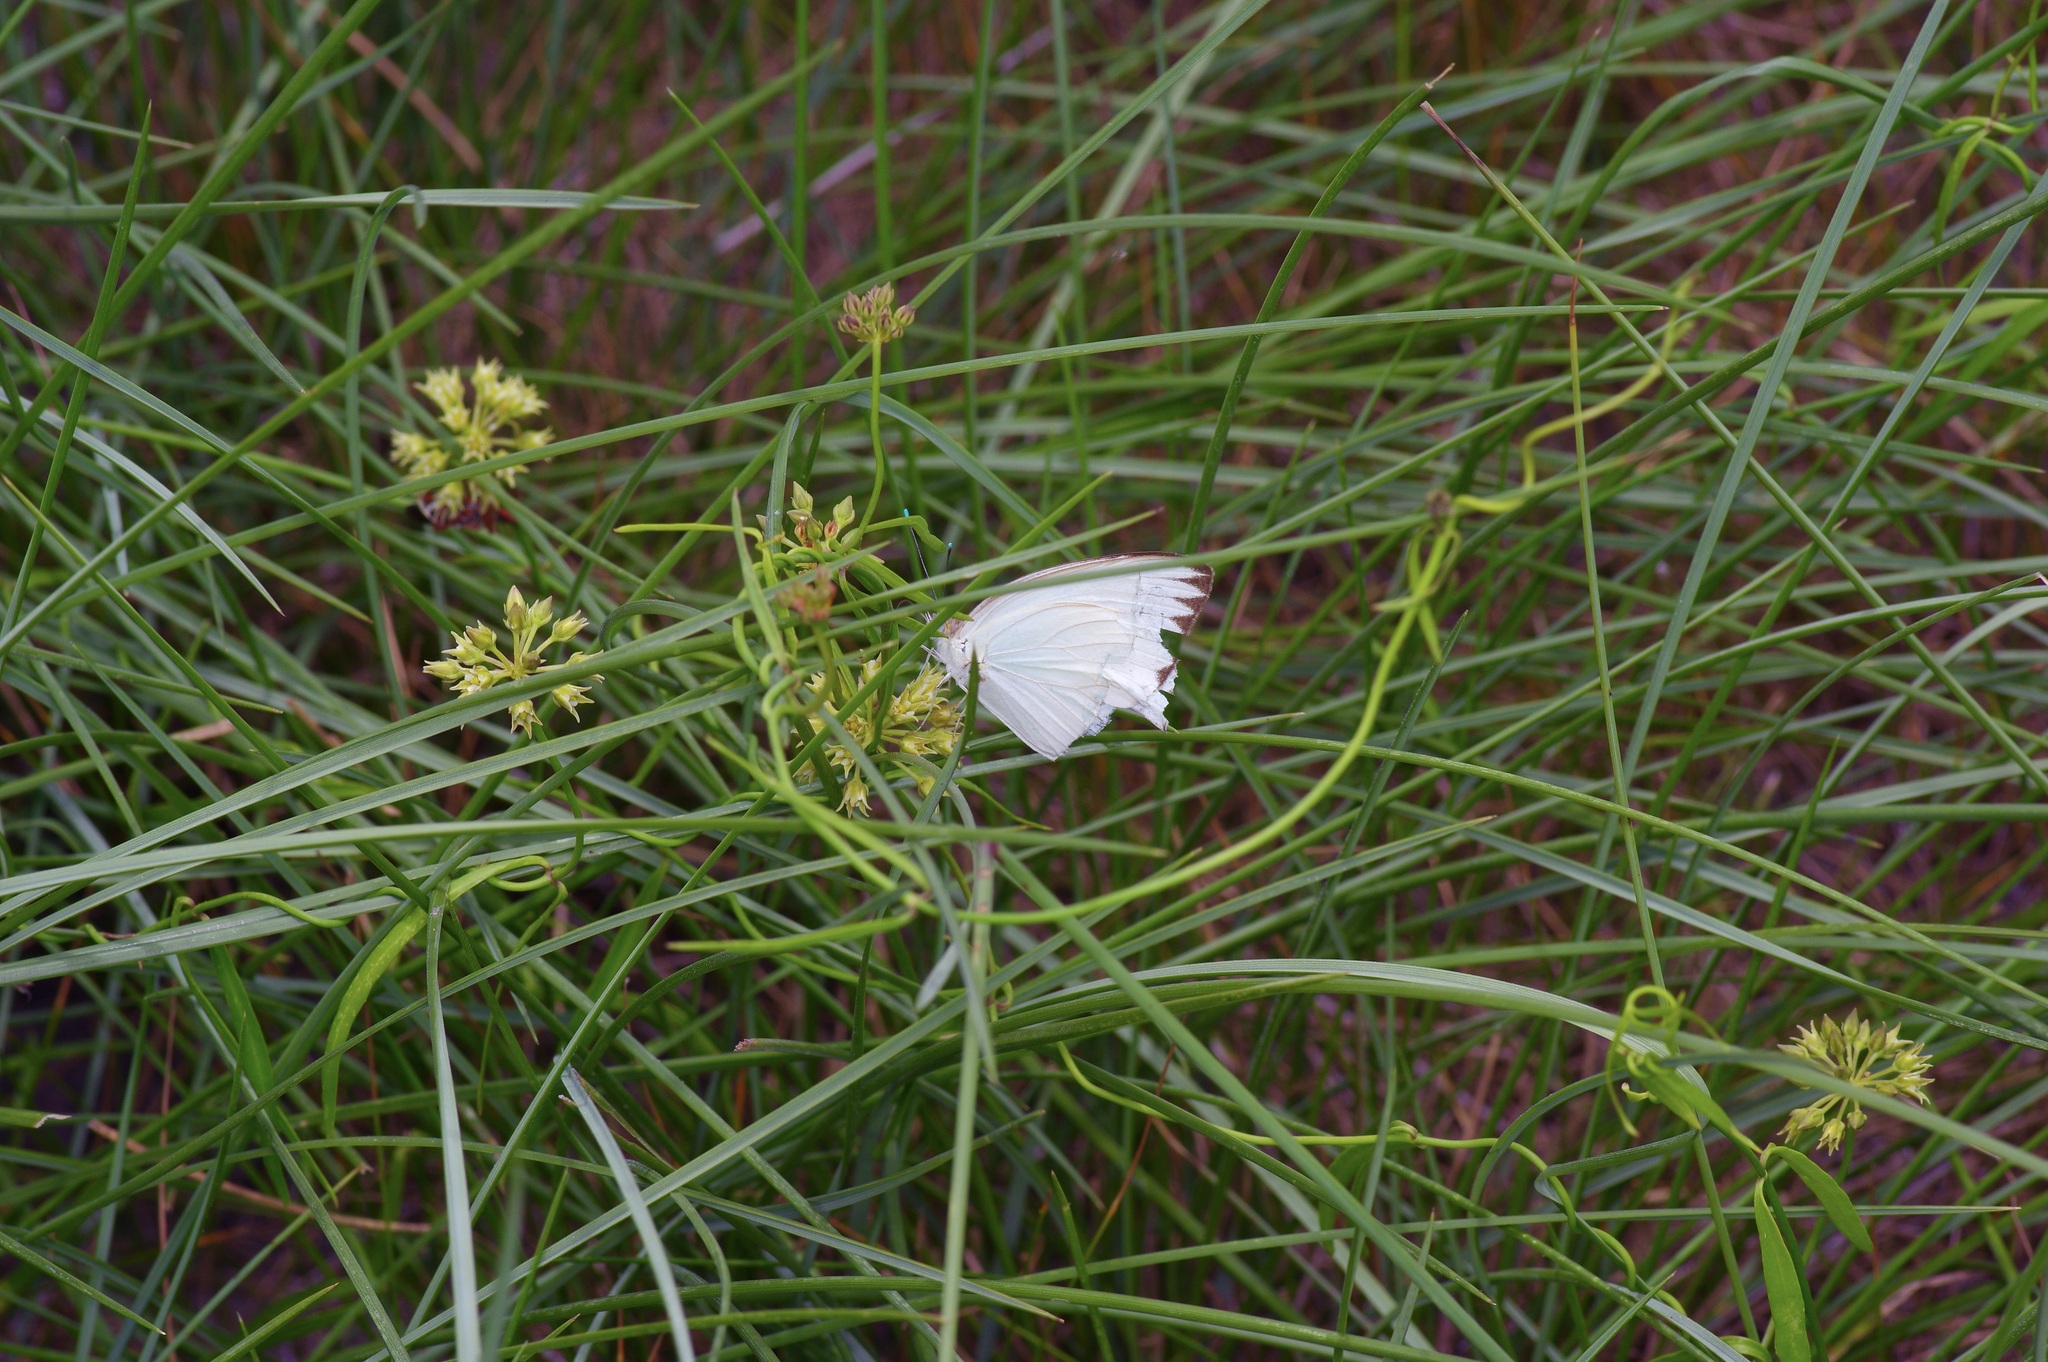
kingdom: Plantae
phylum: Tracheophyta
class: Magnoliopsida
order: Gentianales
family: Apocynaceae
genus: Pattalias
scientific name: Pattalias
